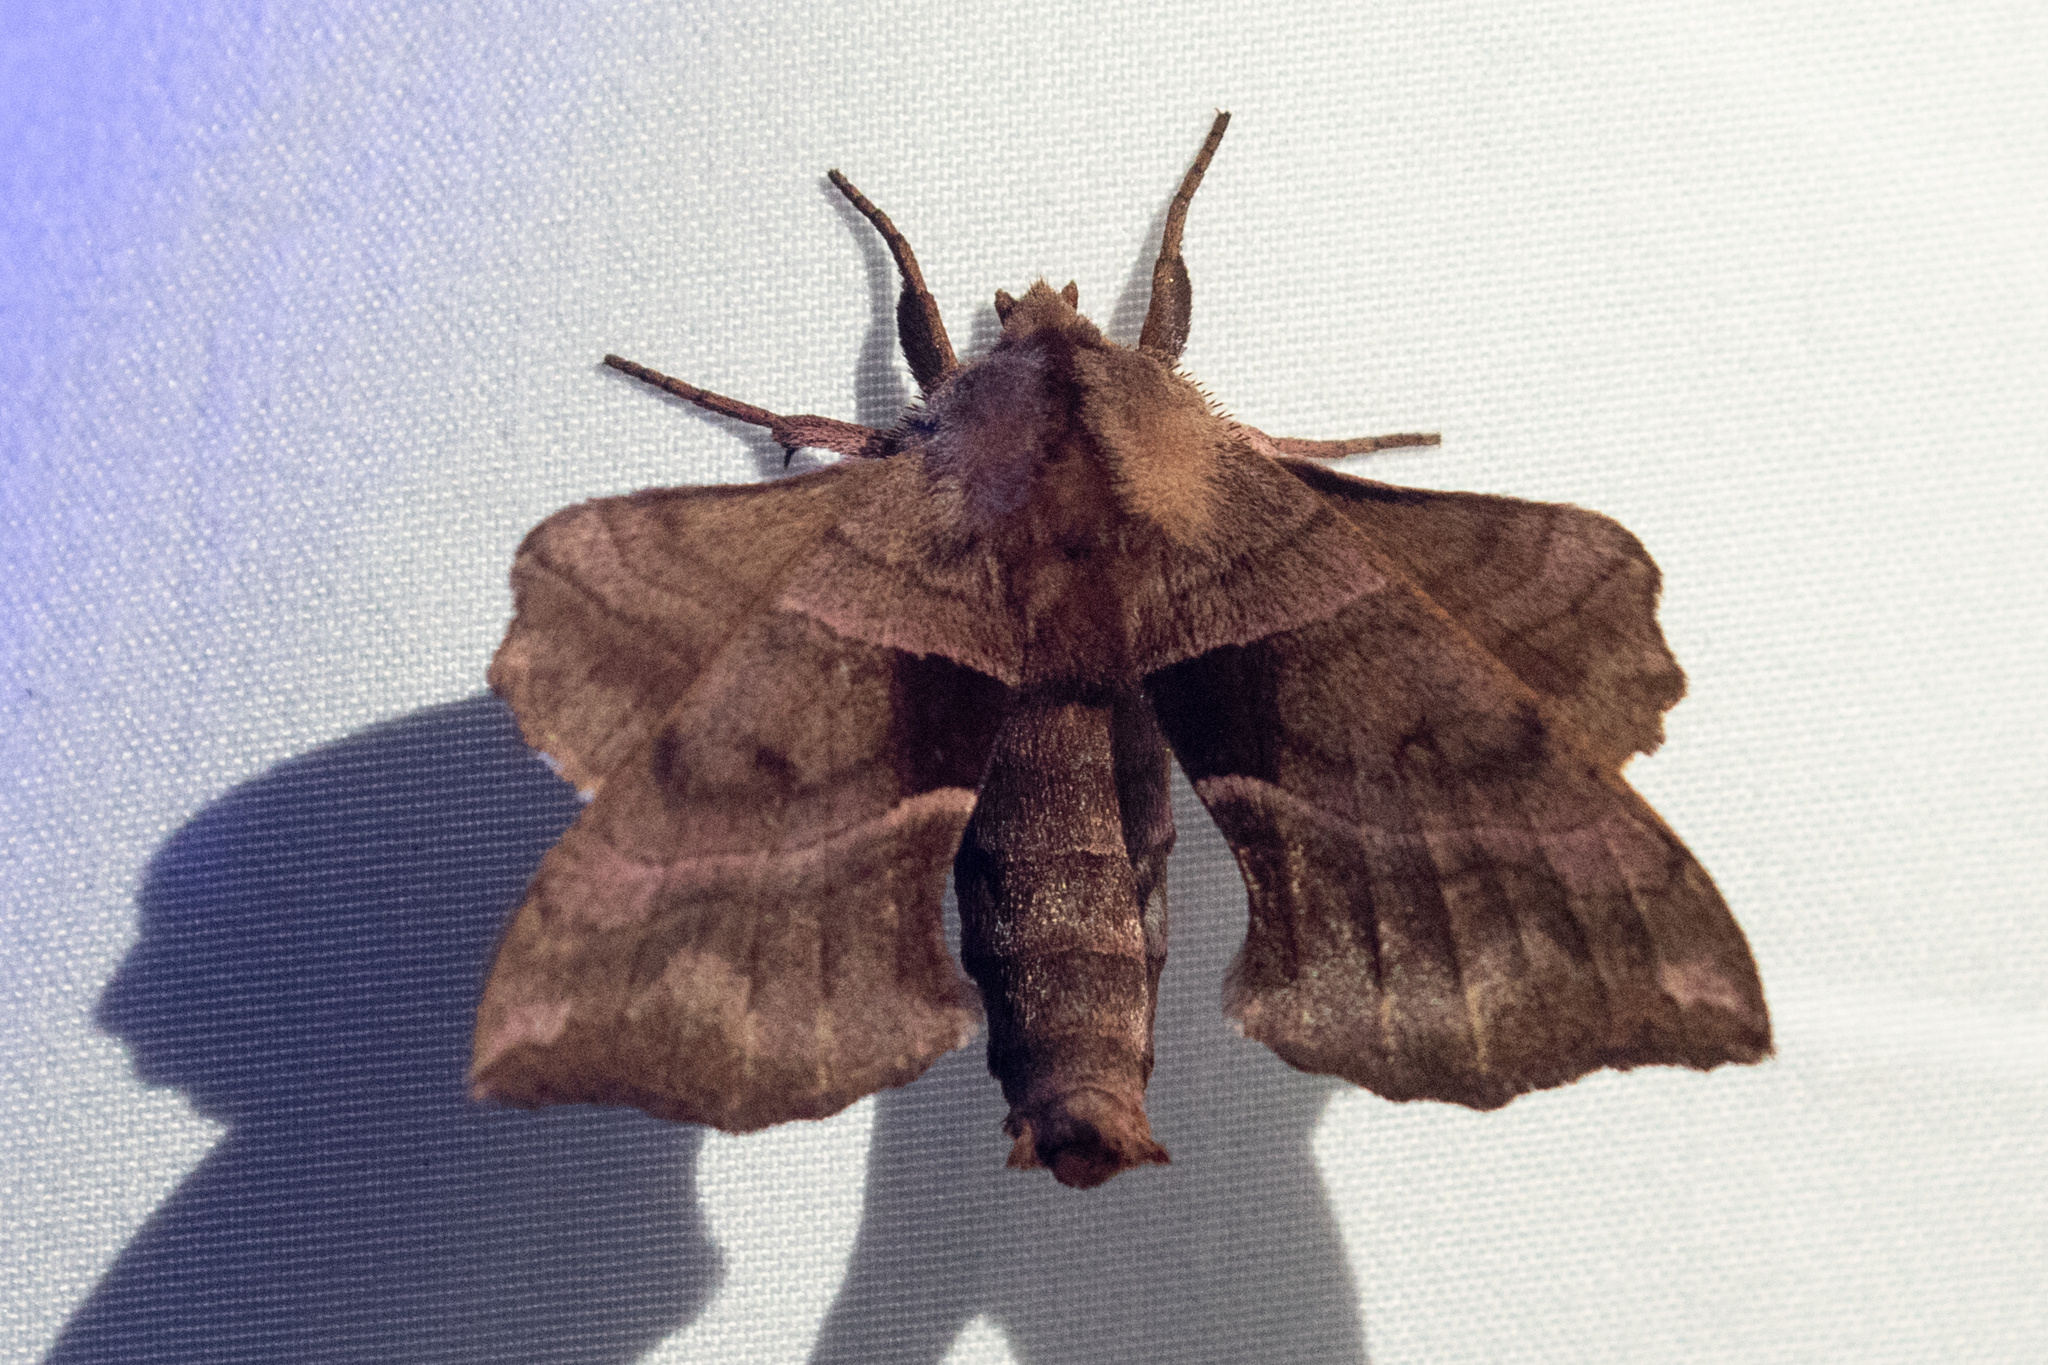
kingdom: Animalia
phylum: Arthropoda
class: Insecta
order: Lepidoptera
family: Sphingidae
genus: Amorpha
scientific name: Amorpha juglandis
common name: Walnut sphinx
